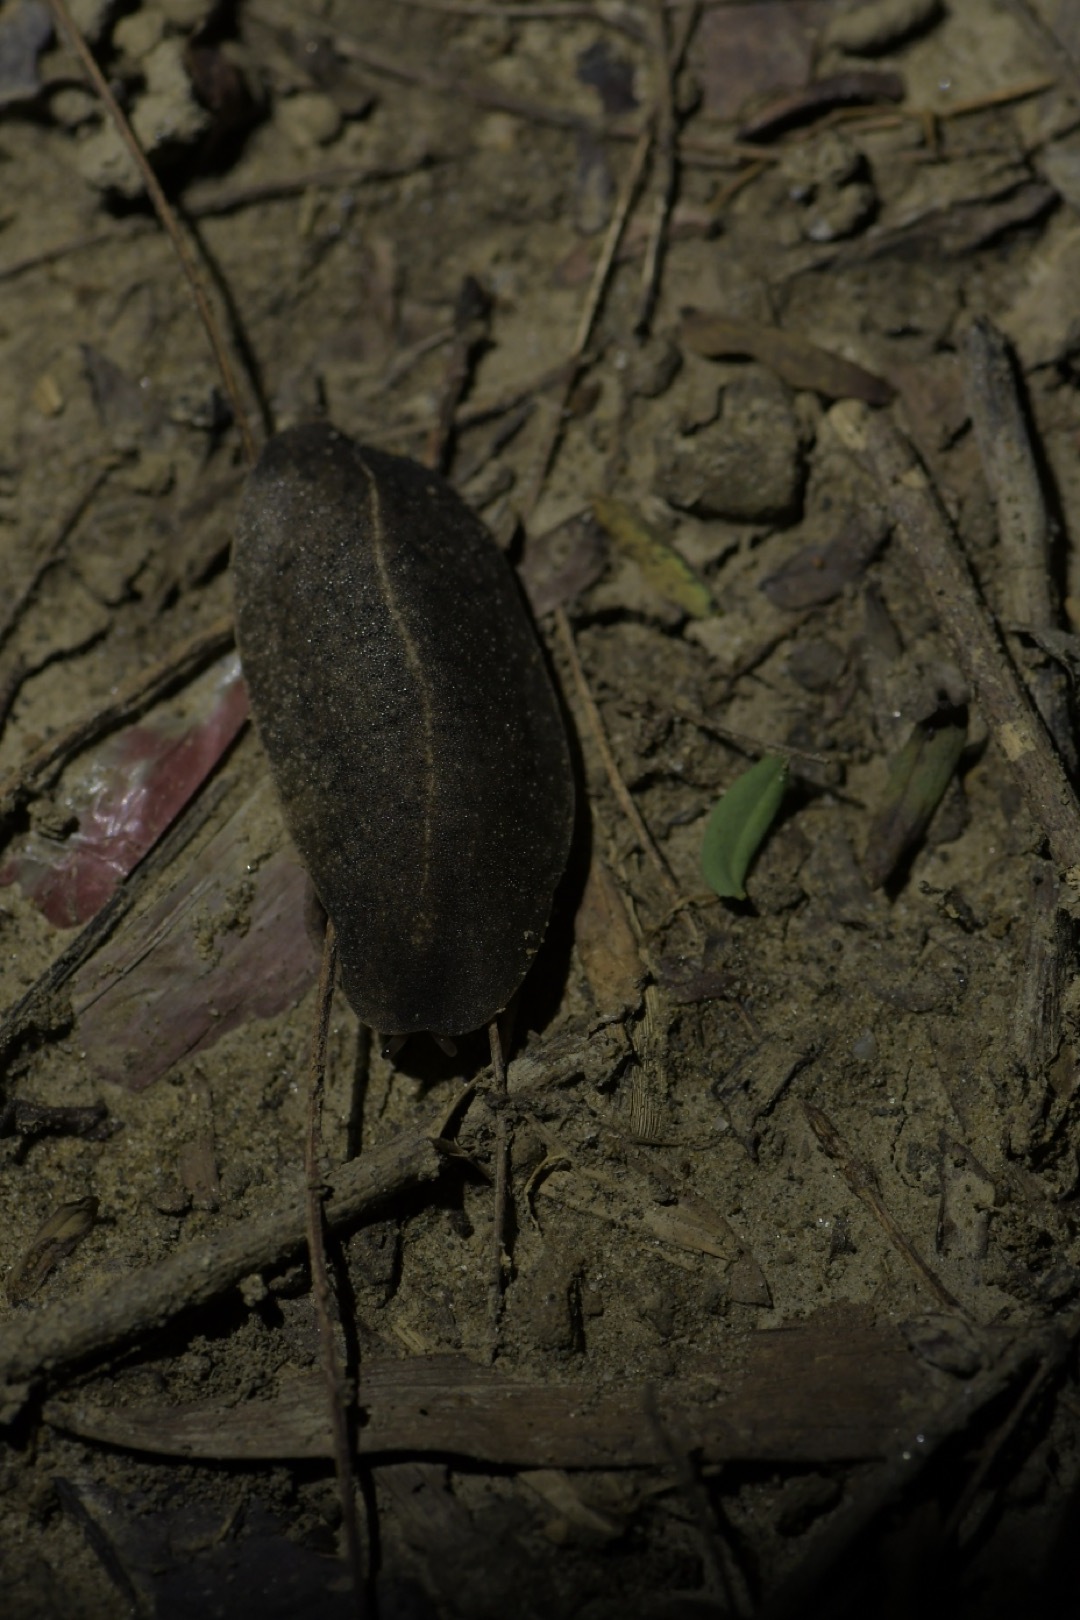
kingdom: Animalia
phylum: Mollusca
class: Gastropoda
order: Systellommatophora
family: Veronicellidae
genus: Laevicaulis
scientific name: Laevicaulis alte
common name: Tropical leatherleaf
